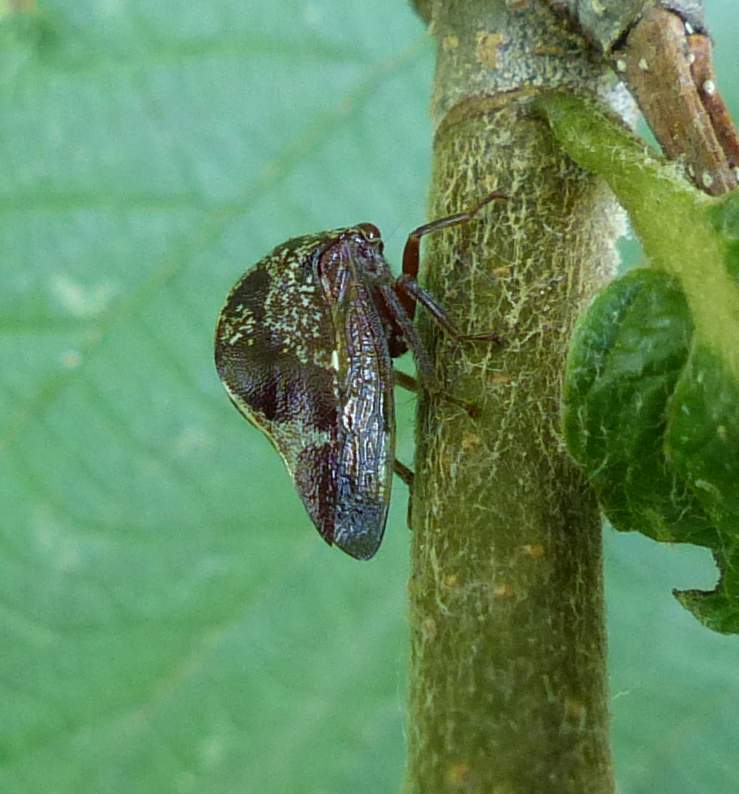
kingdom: Animalia
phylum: Arthropoda
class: Insecta
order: Hemiptera
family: Membracidae
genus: Carynota
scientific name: Carynota marmorata
